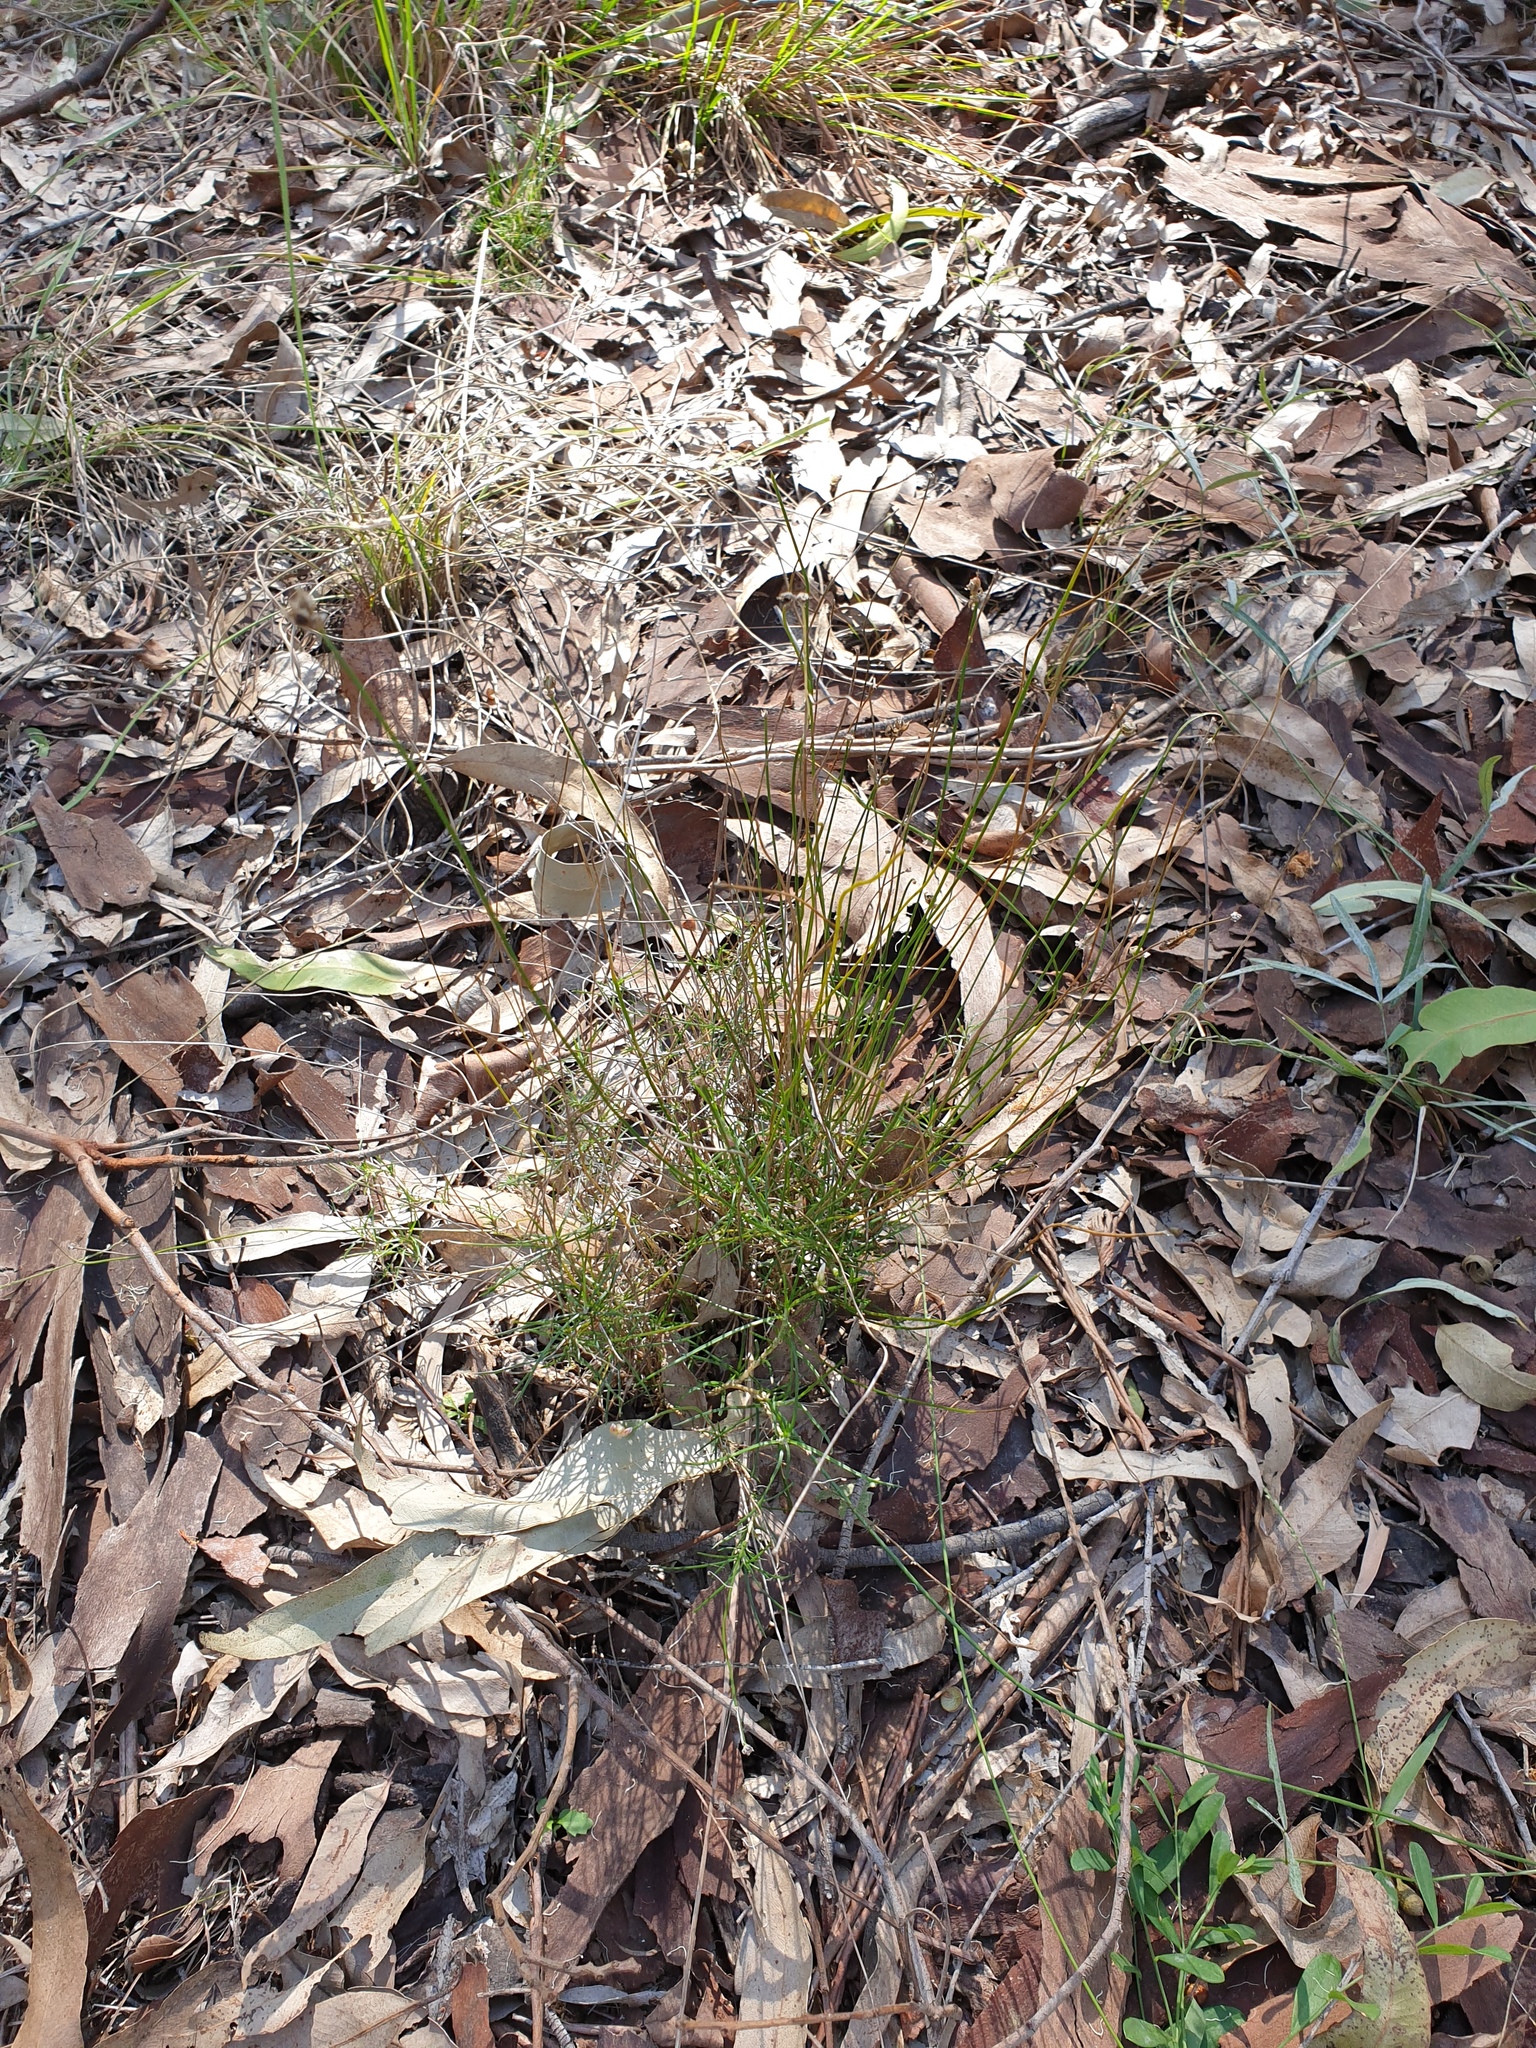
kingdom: Plantae
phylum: Tracheophyta
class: Liliopsida
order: Asparagales
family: Asparagaceae
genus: Laxmannia
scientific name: Laxmannia gracilis
